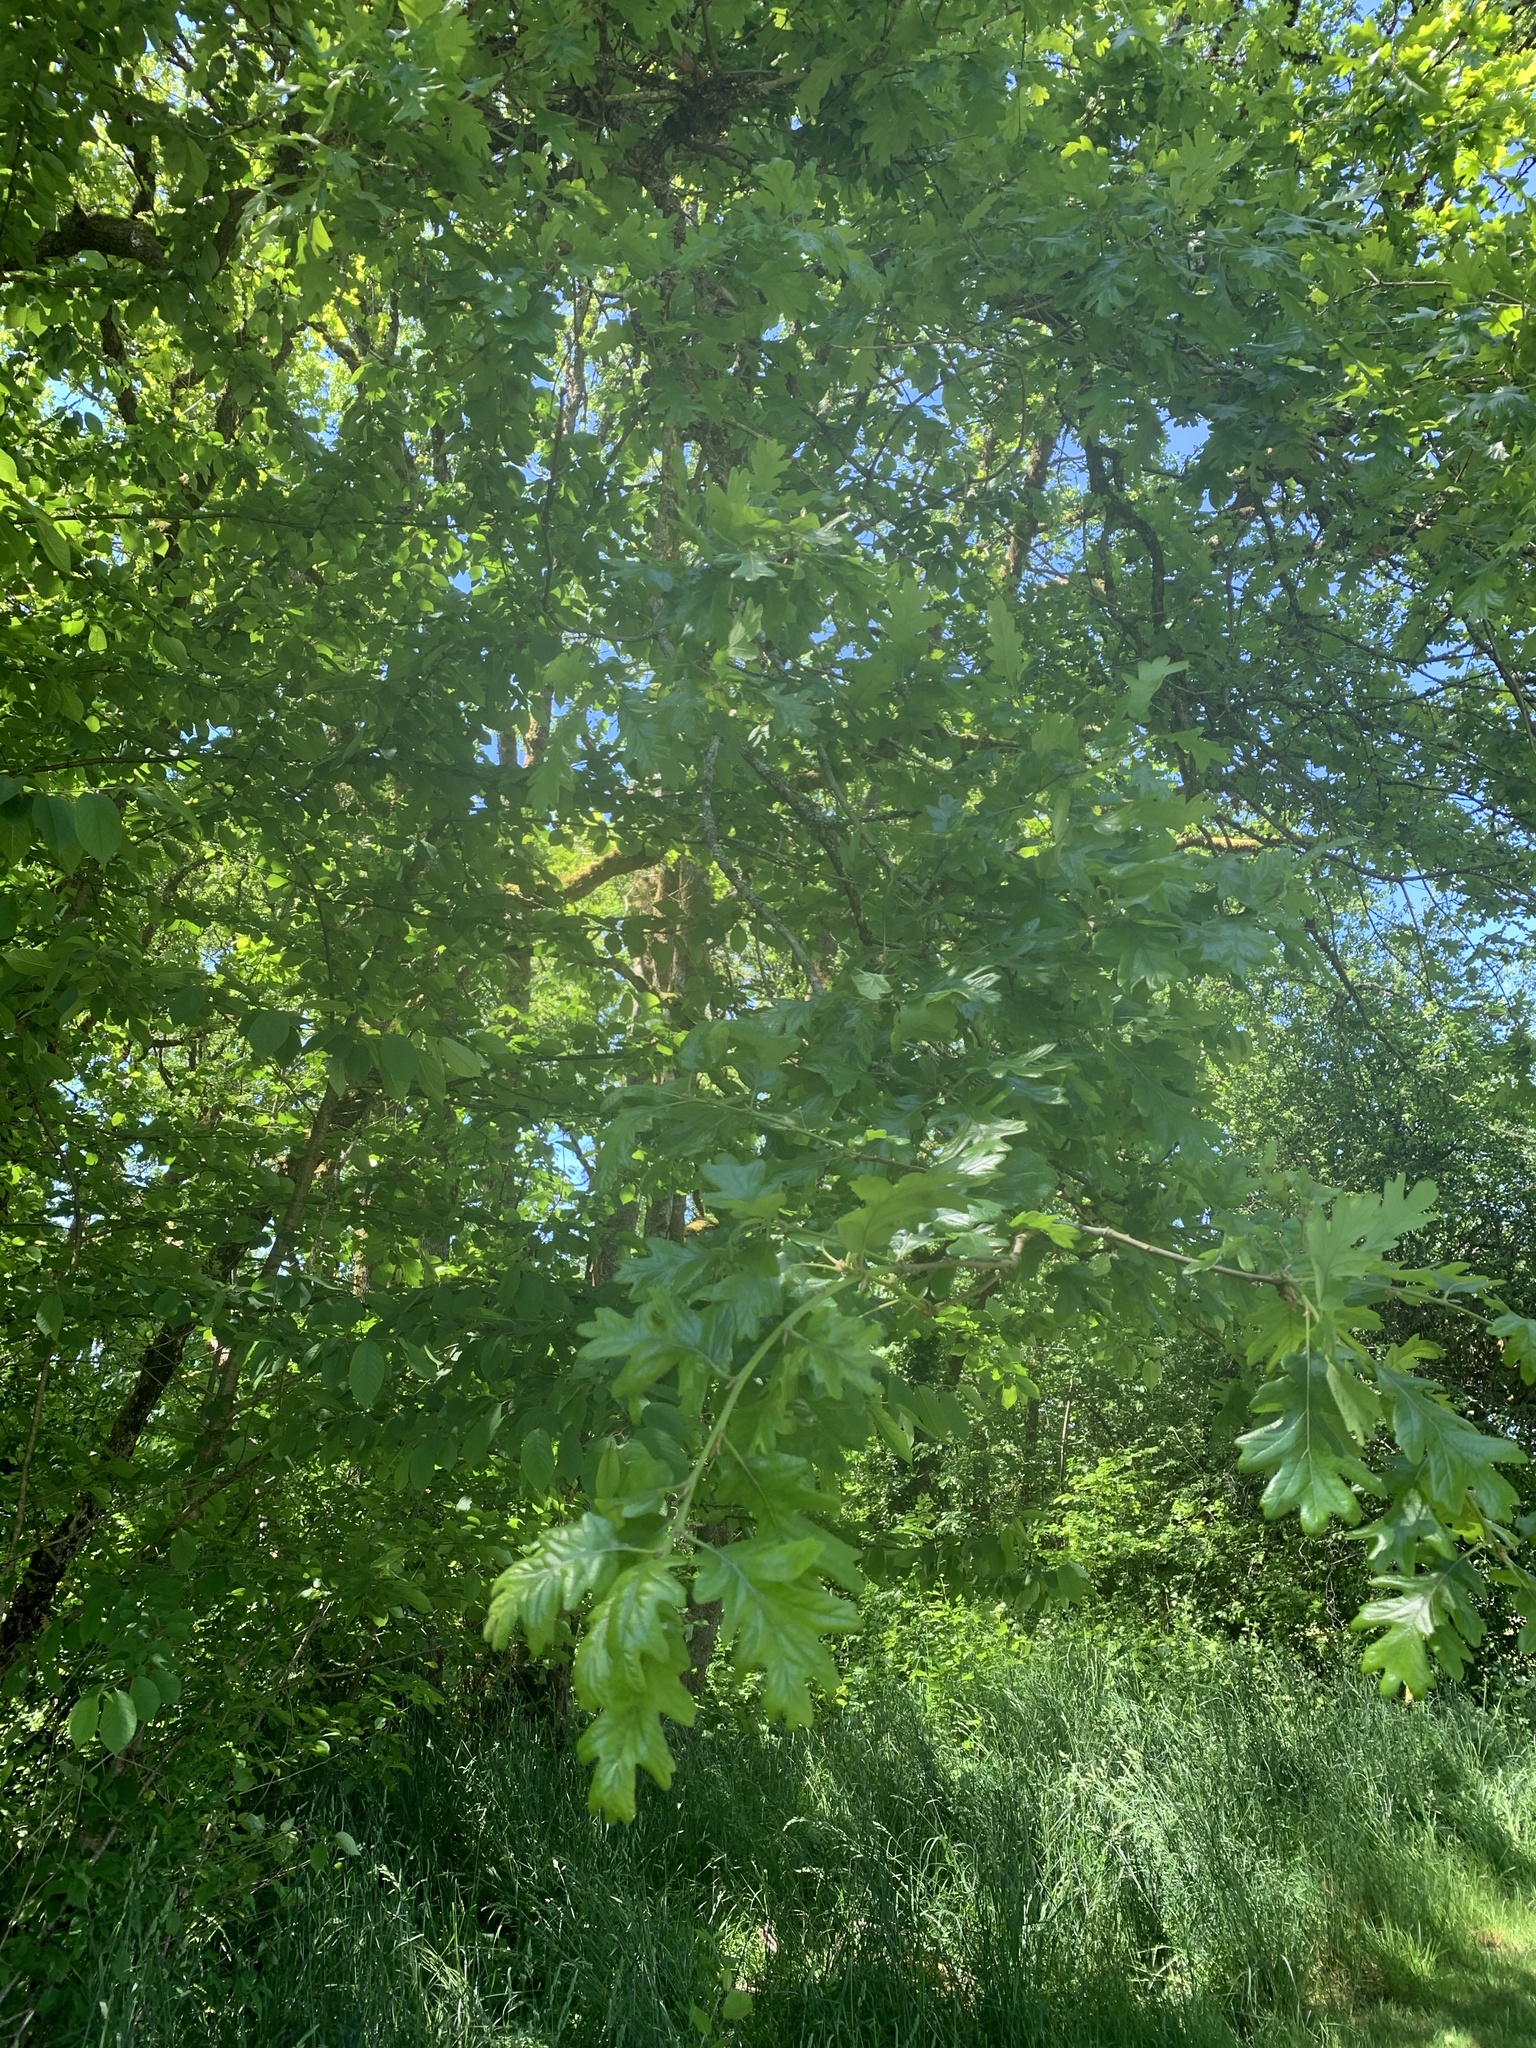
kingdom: Plantae
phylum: Tracheophyta
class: Magnoliopsida
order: Fagales
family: Fagaceae
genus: Quercus
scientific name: Quercus garryana
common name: Garry oak
